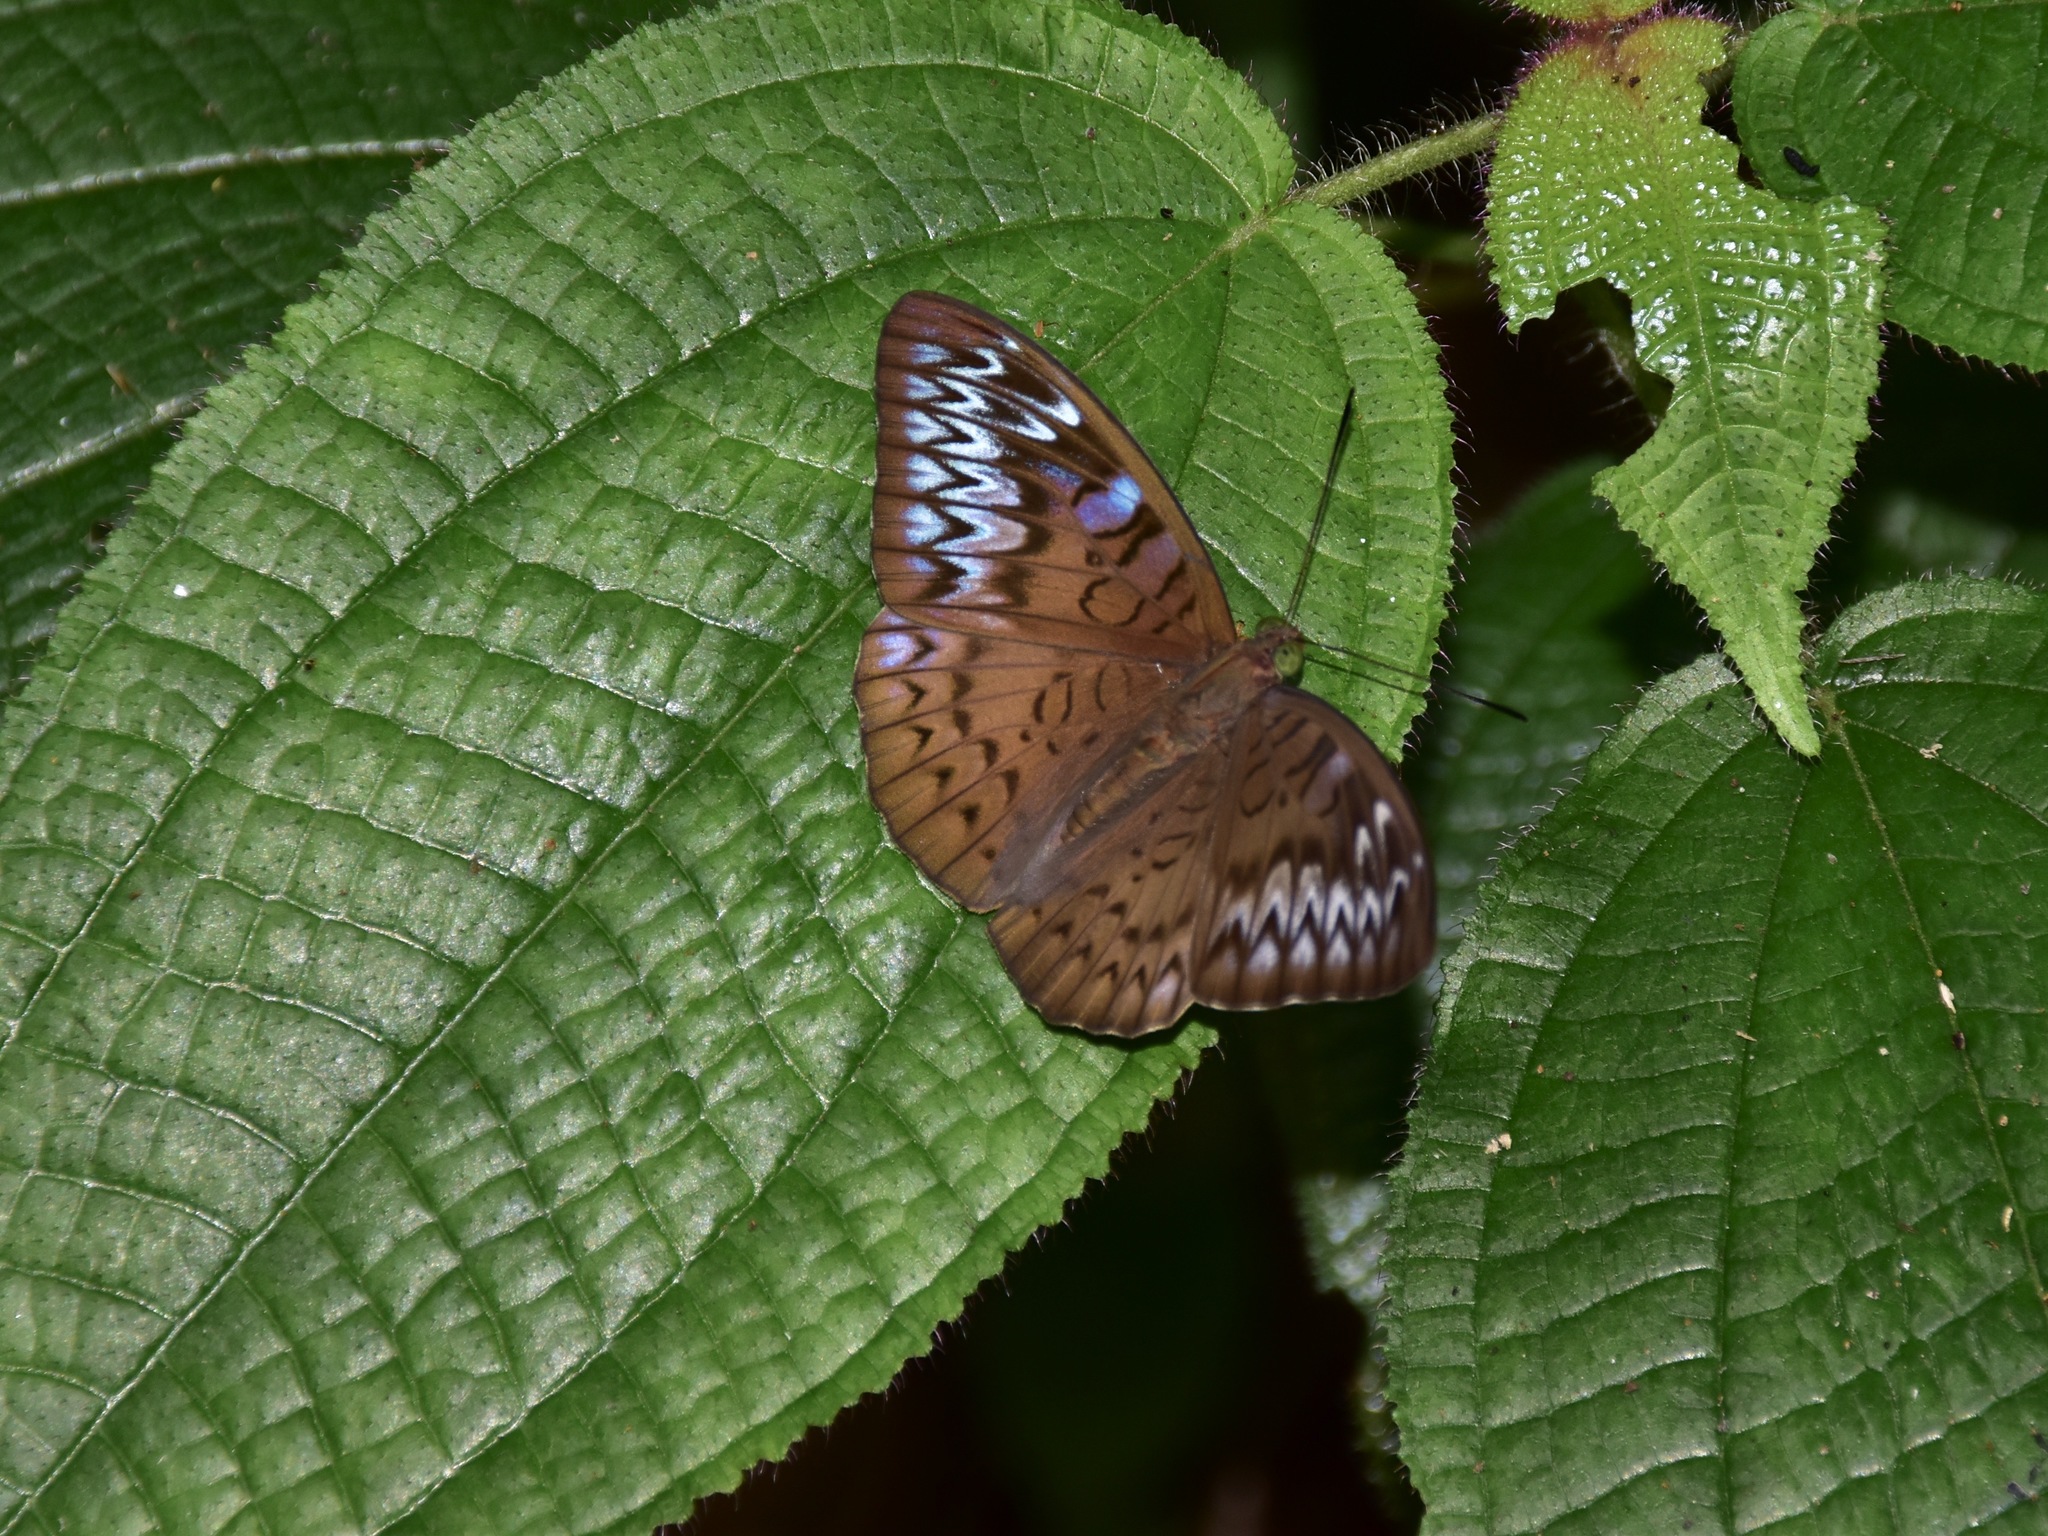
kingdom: Animalia
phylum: Arthropoda
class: Insecta
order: Lepidoptera
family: Nymphalidae
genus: Tanaecia
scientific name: Tanaecia pelea
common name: Malay viscount
